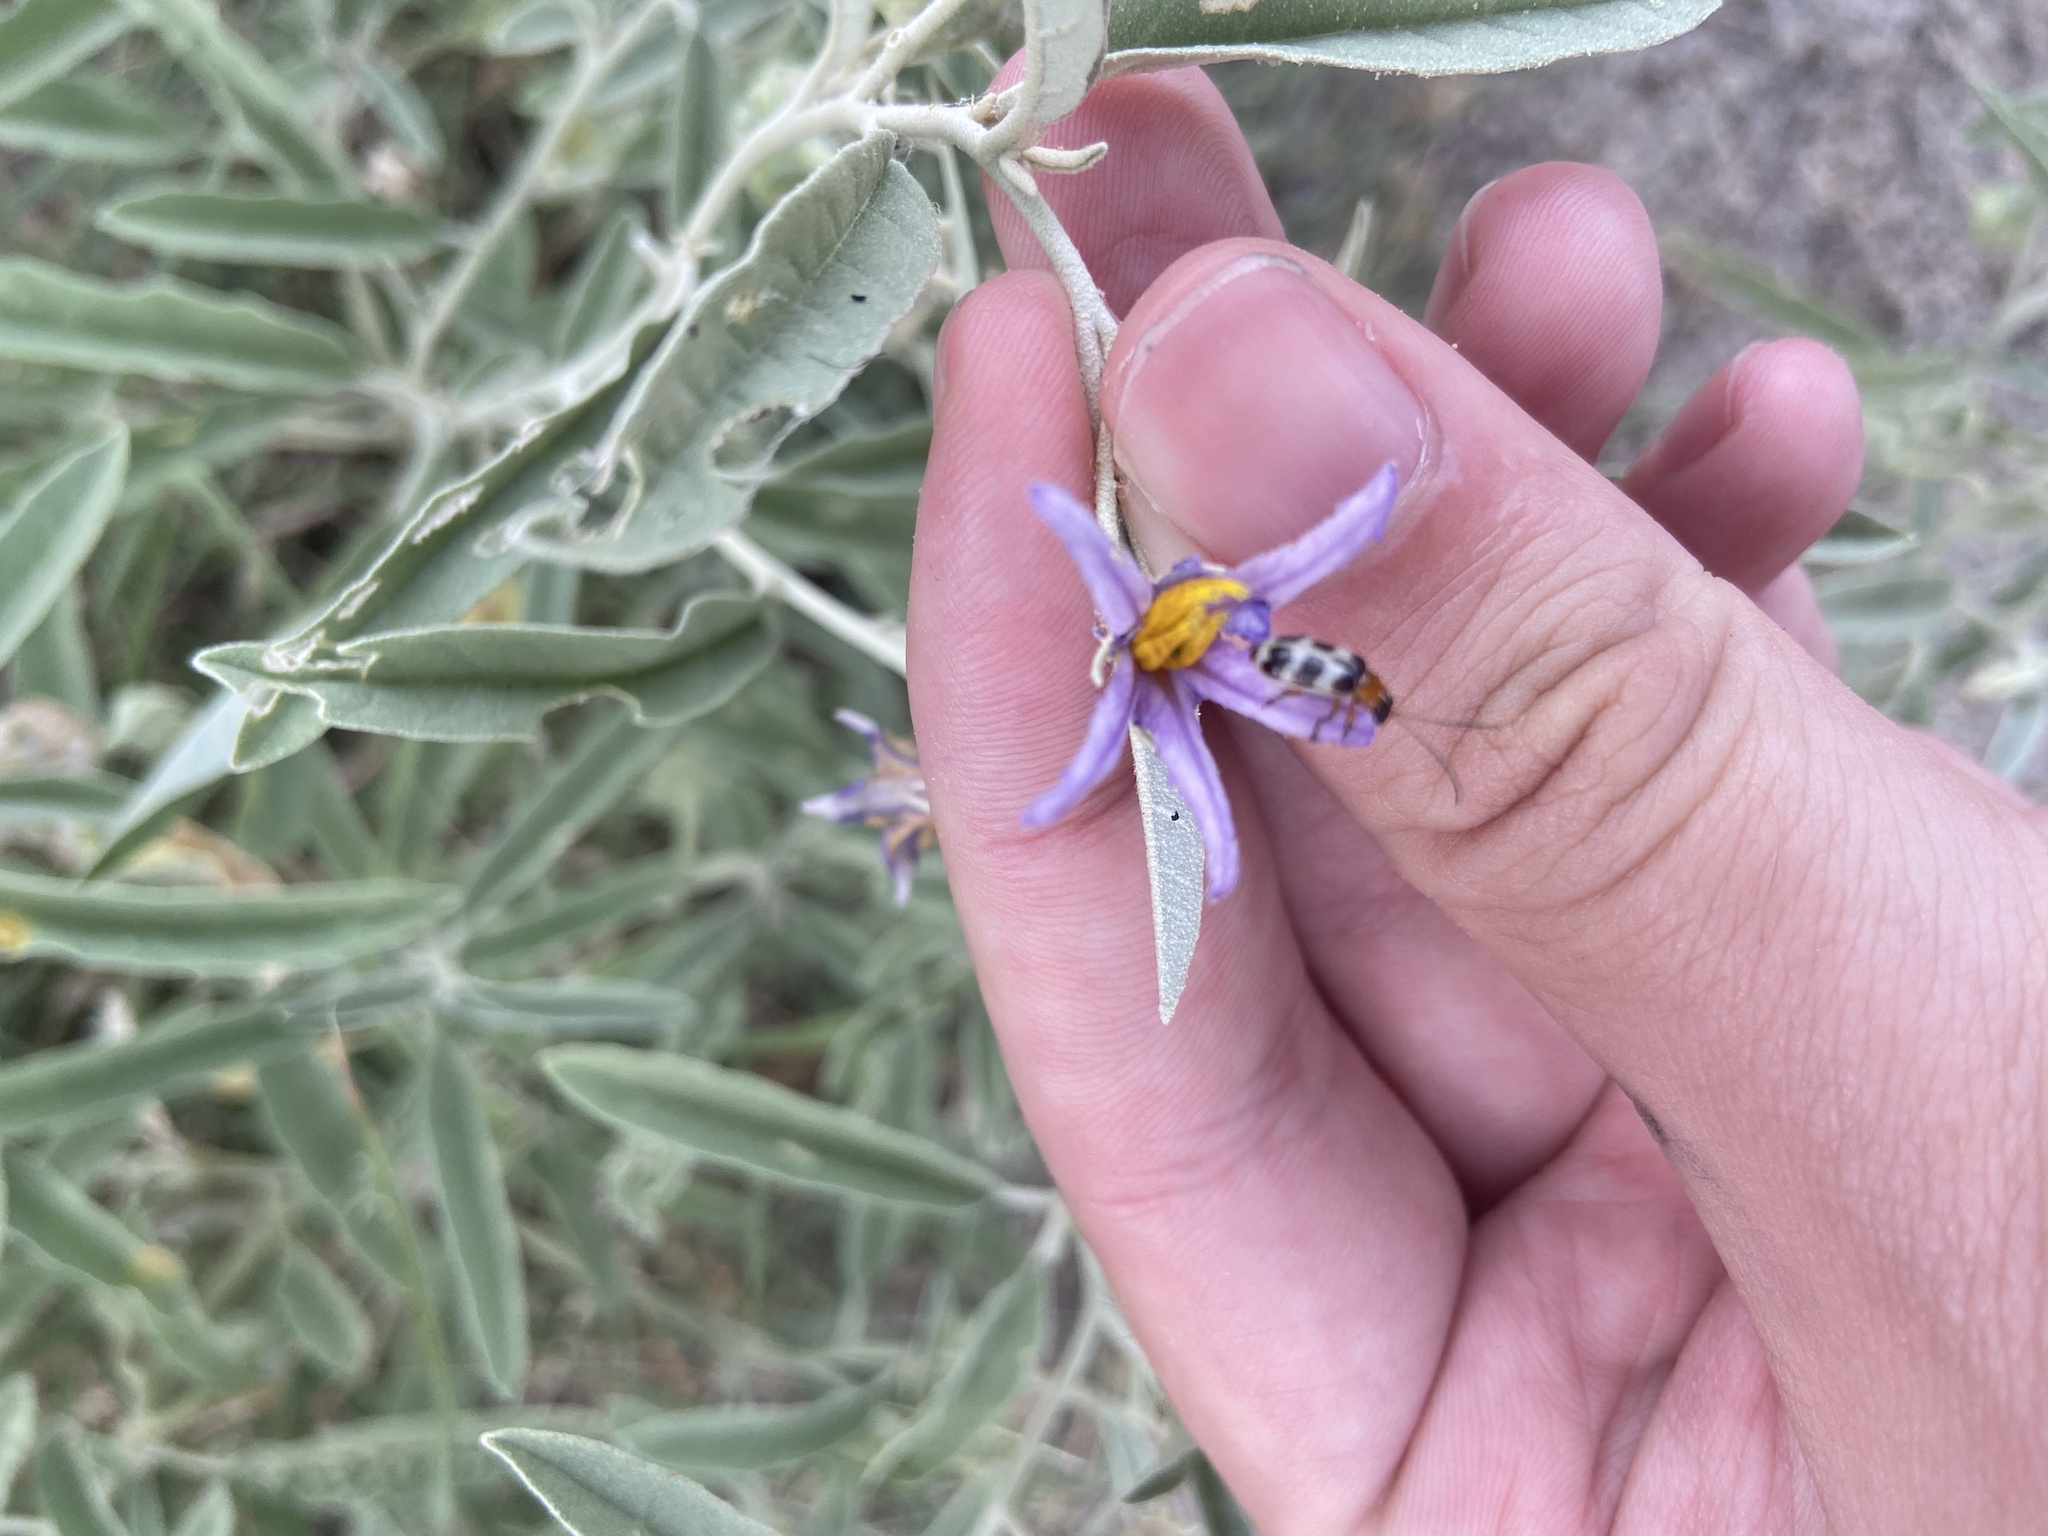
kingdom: Plantae
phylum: Tracheophyta
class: Magnoliopsida
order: Solanales
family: Solanaceae
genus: Solanum
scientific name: Solanum elaeagnifolium
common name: Silverleaf nightshade
